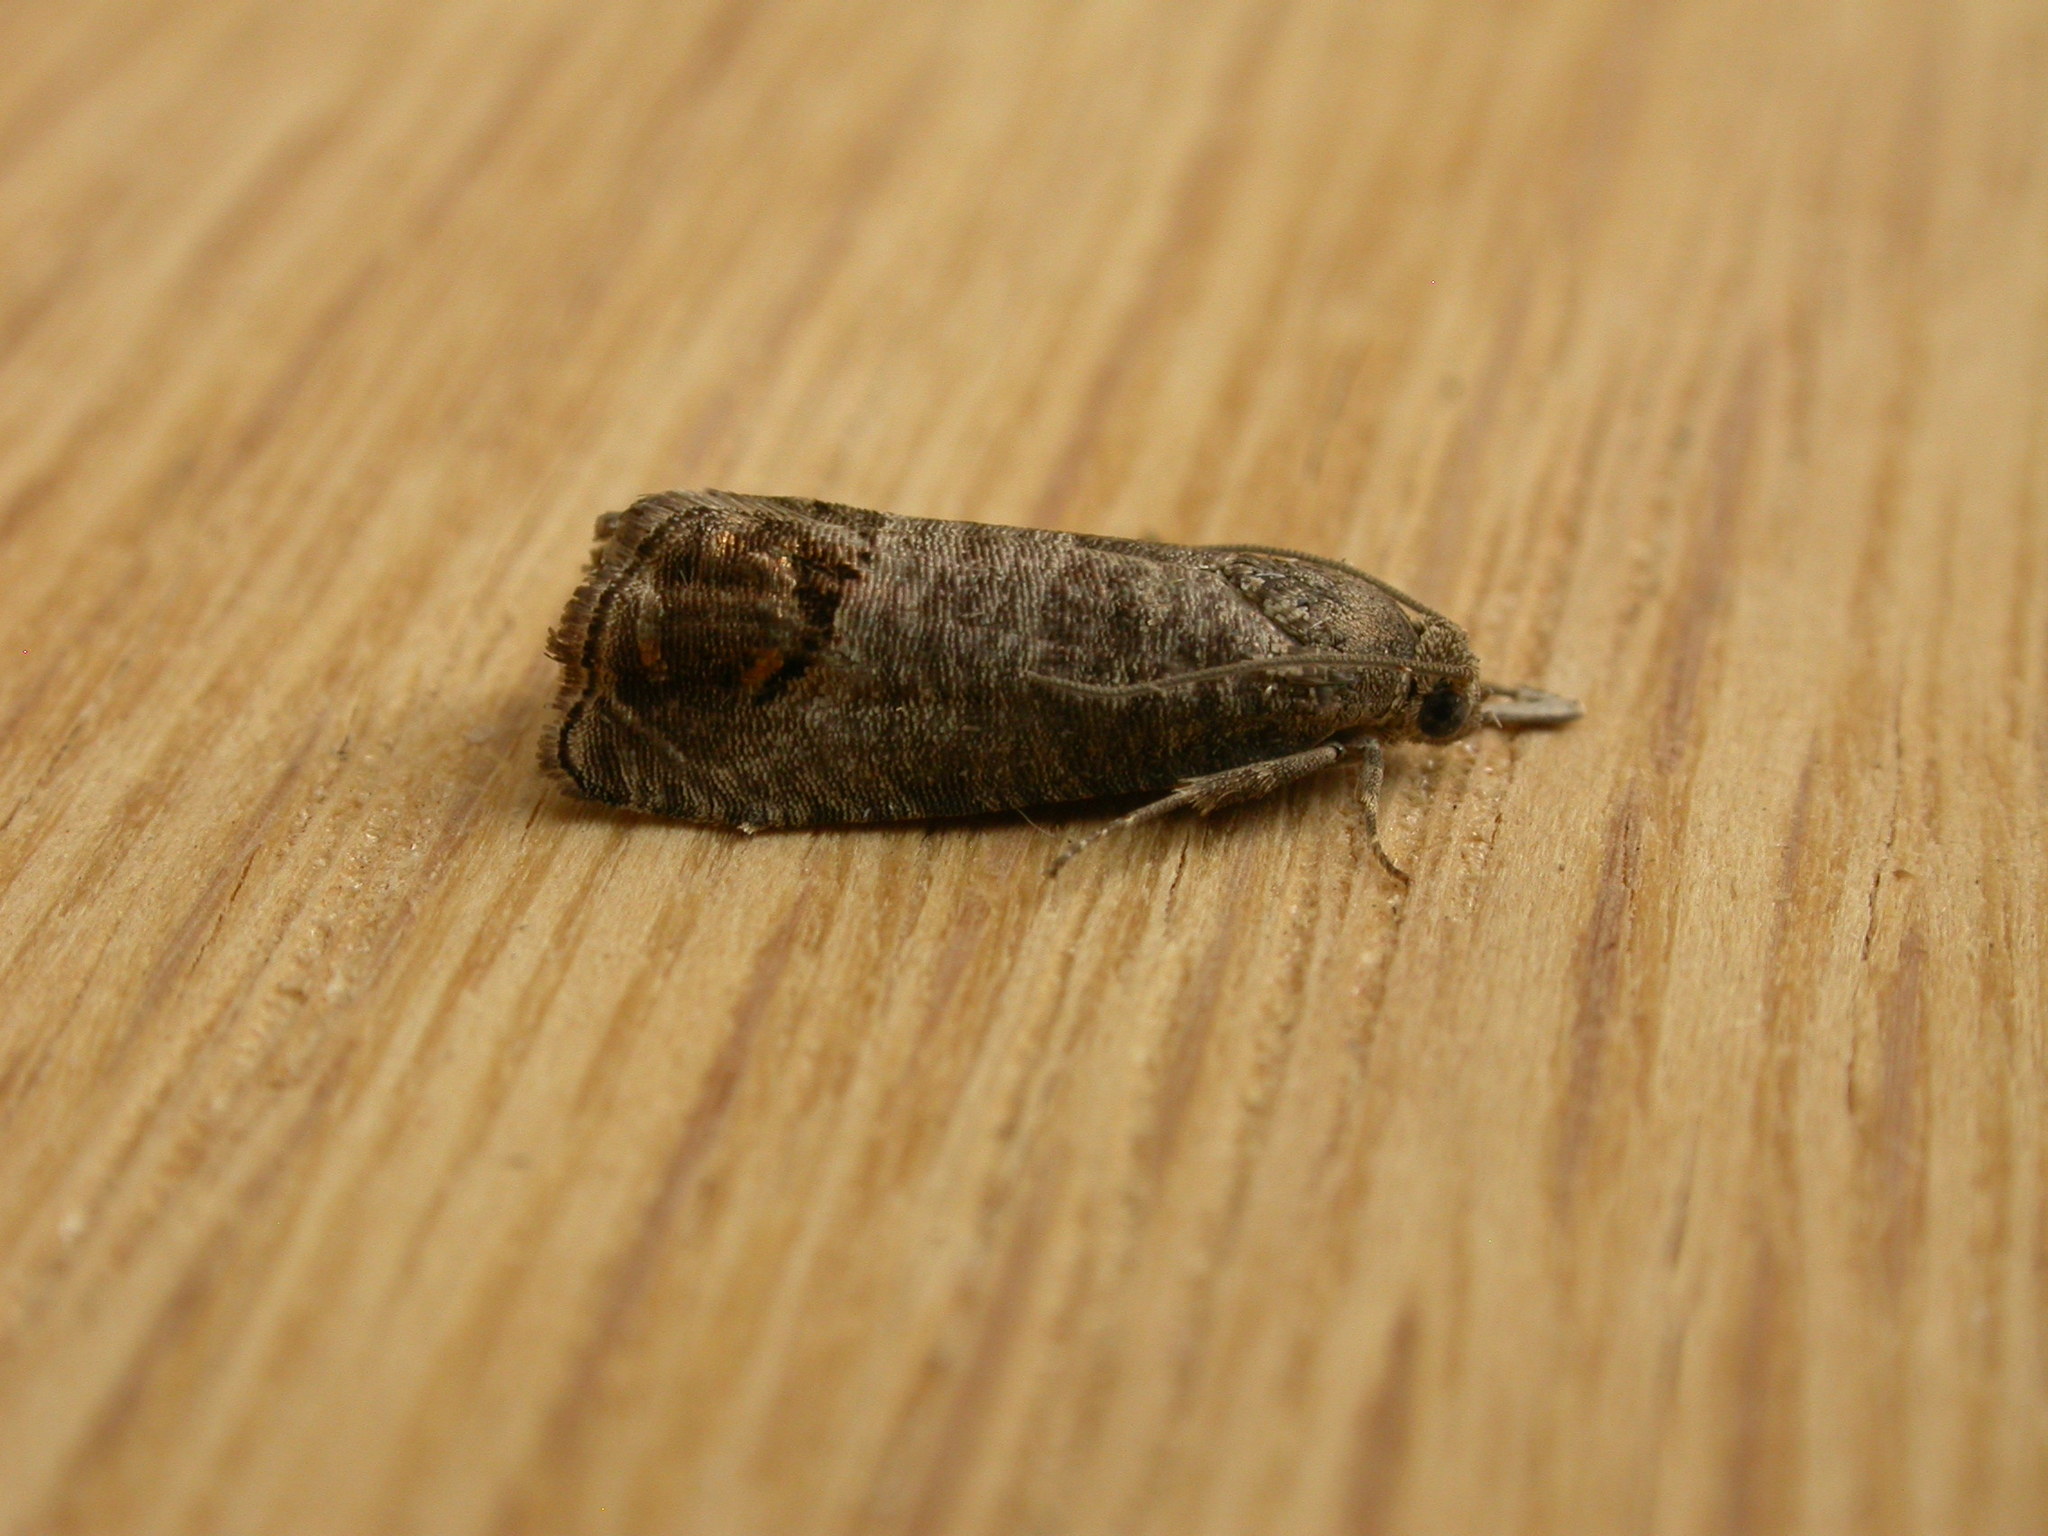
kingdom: Animalia
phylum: Arthropoda
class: Insecta
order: Lepidoptera
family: Tortricidae
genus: Cydia
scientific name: Cydia pomonella
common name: Codling moth
